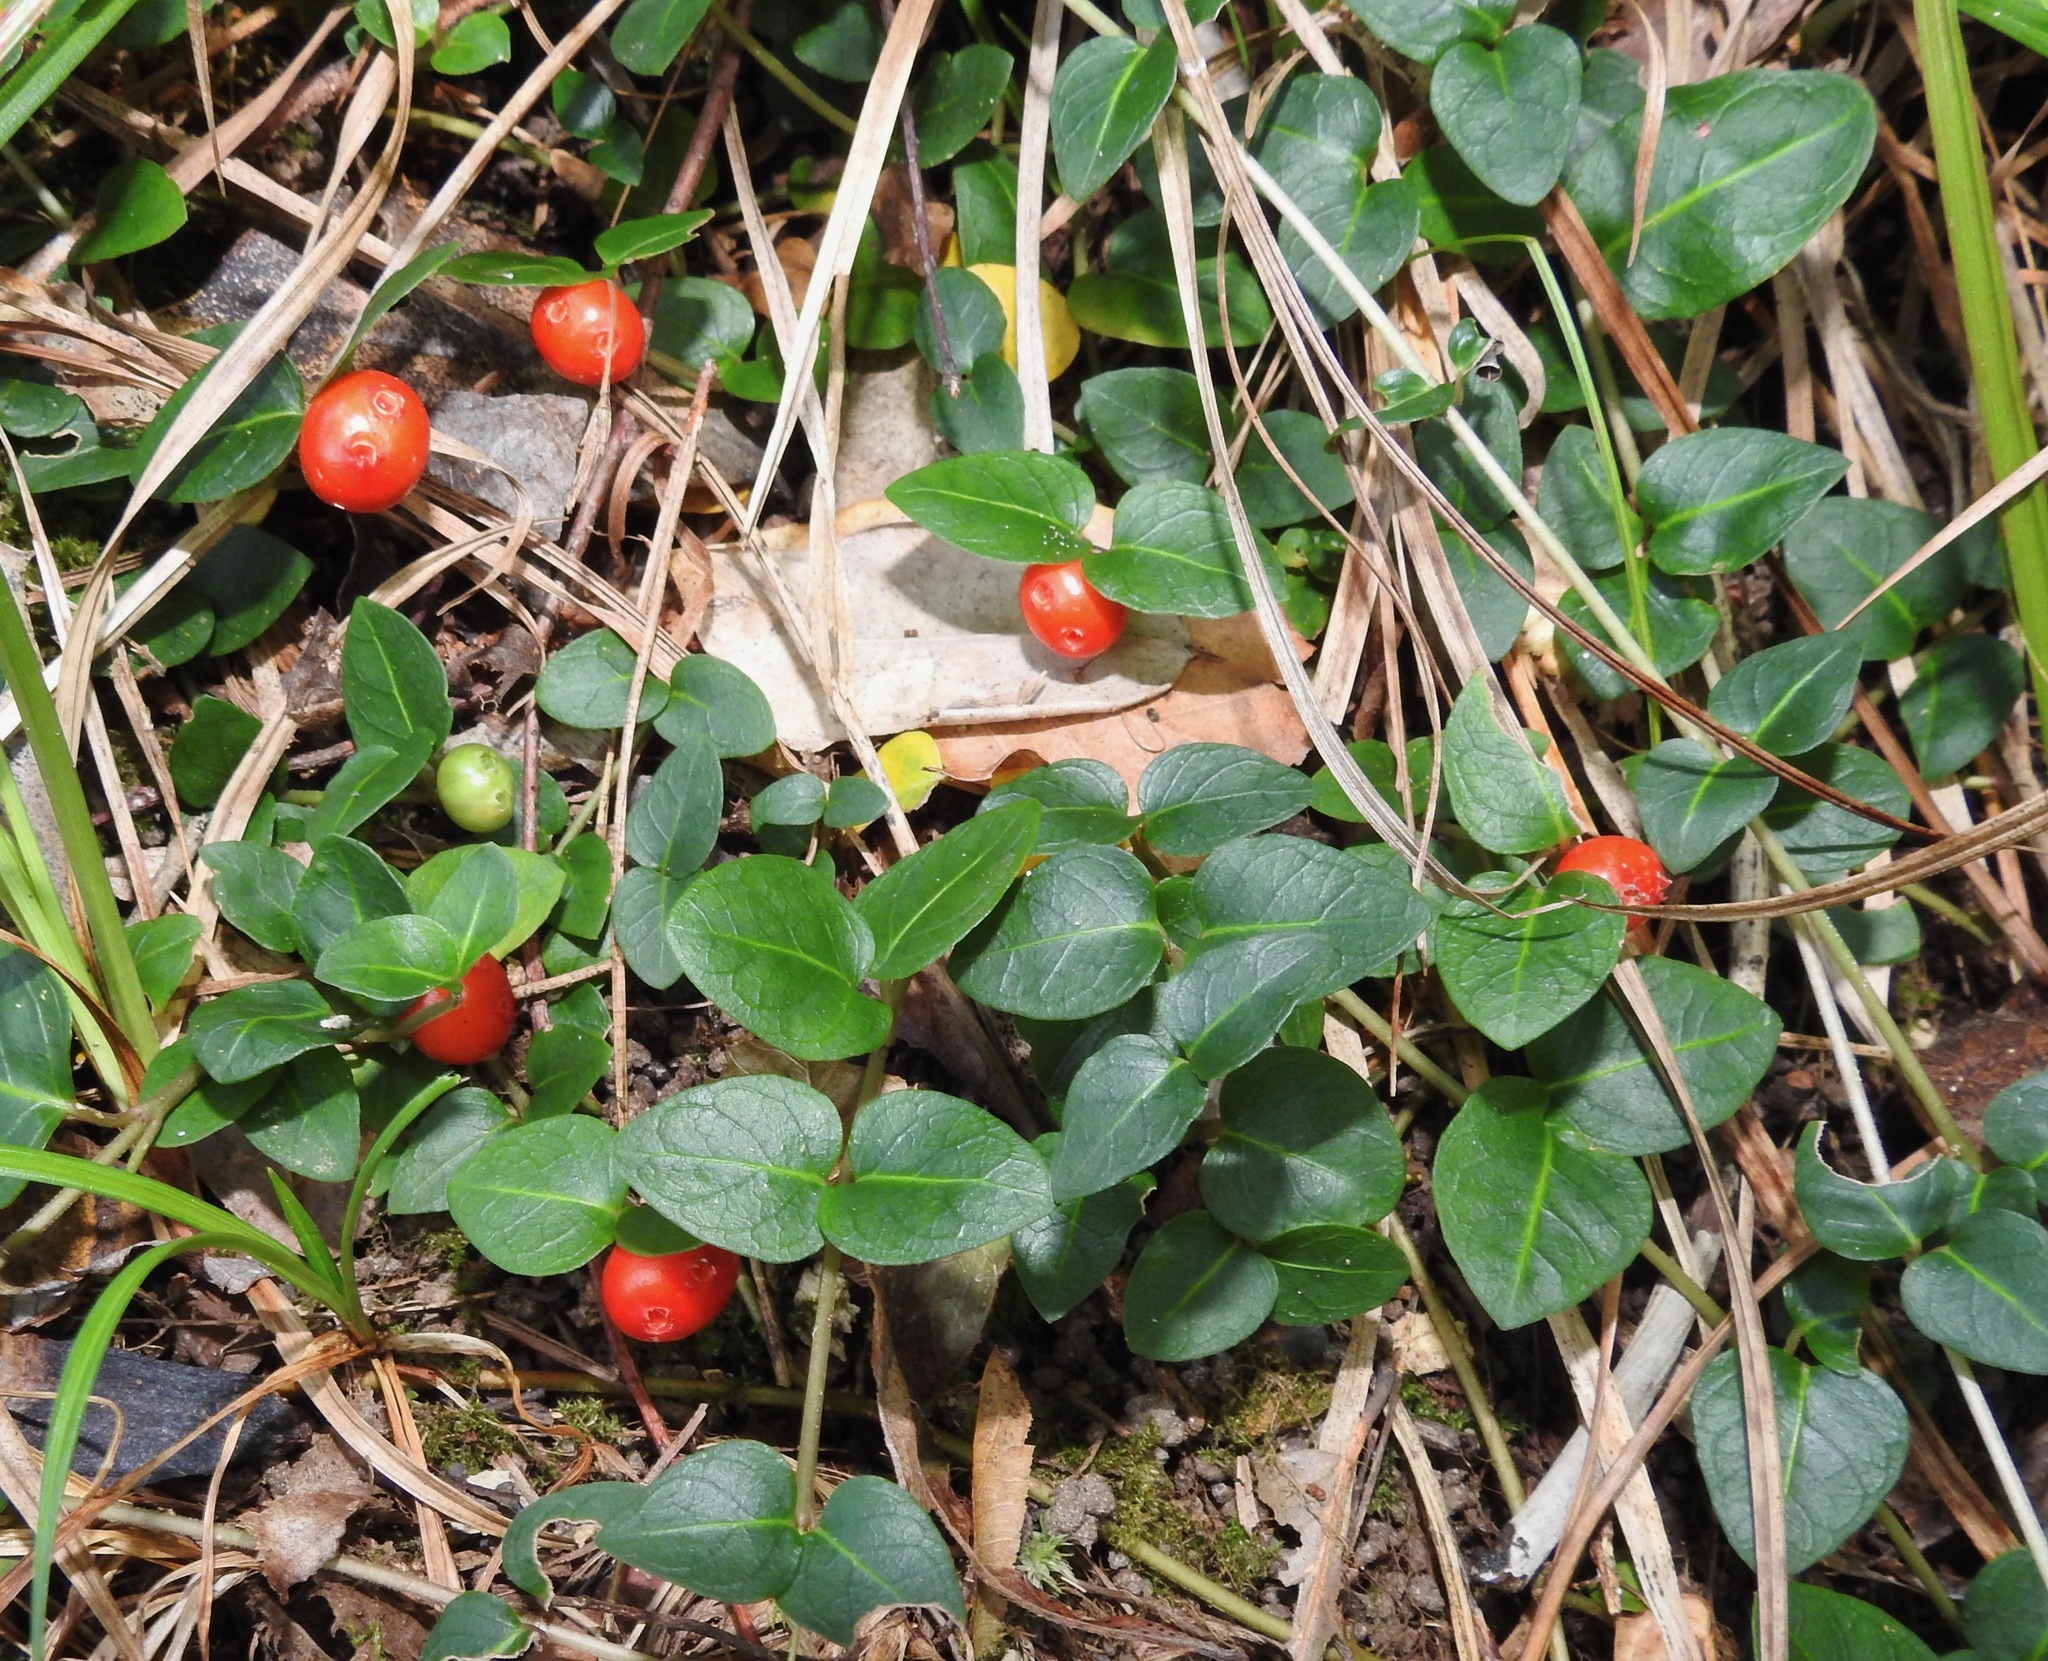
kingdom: Plantae
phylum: Tracheophyta
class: Magnoliopsida
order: Gentianales
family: Rubiaceae
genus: Mitchella
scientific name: Mitchella repens
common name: Partridge-berry
